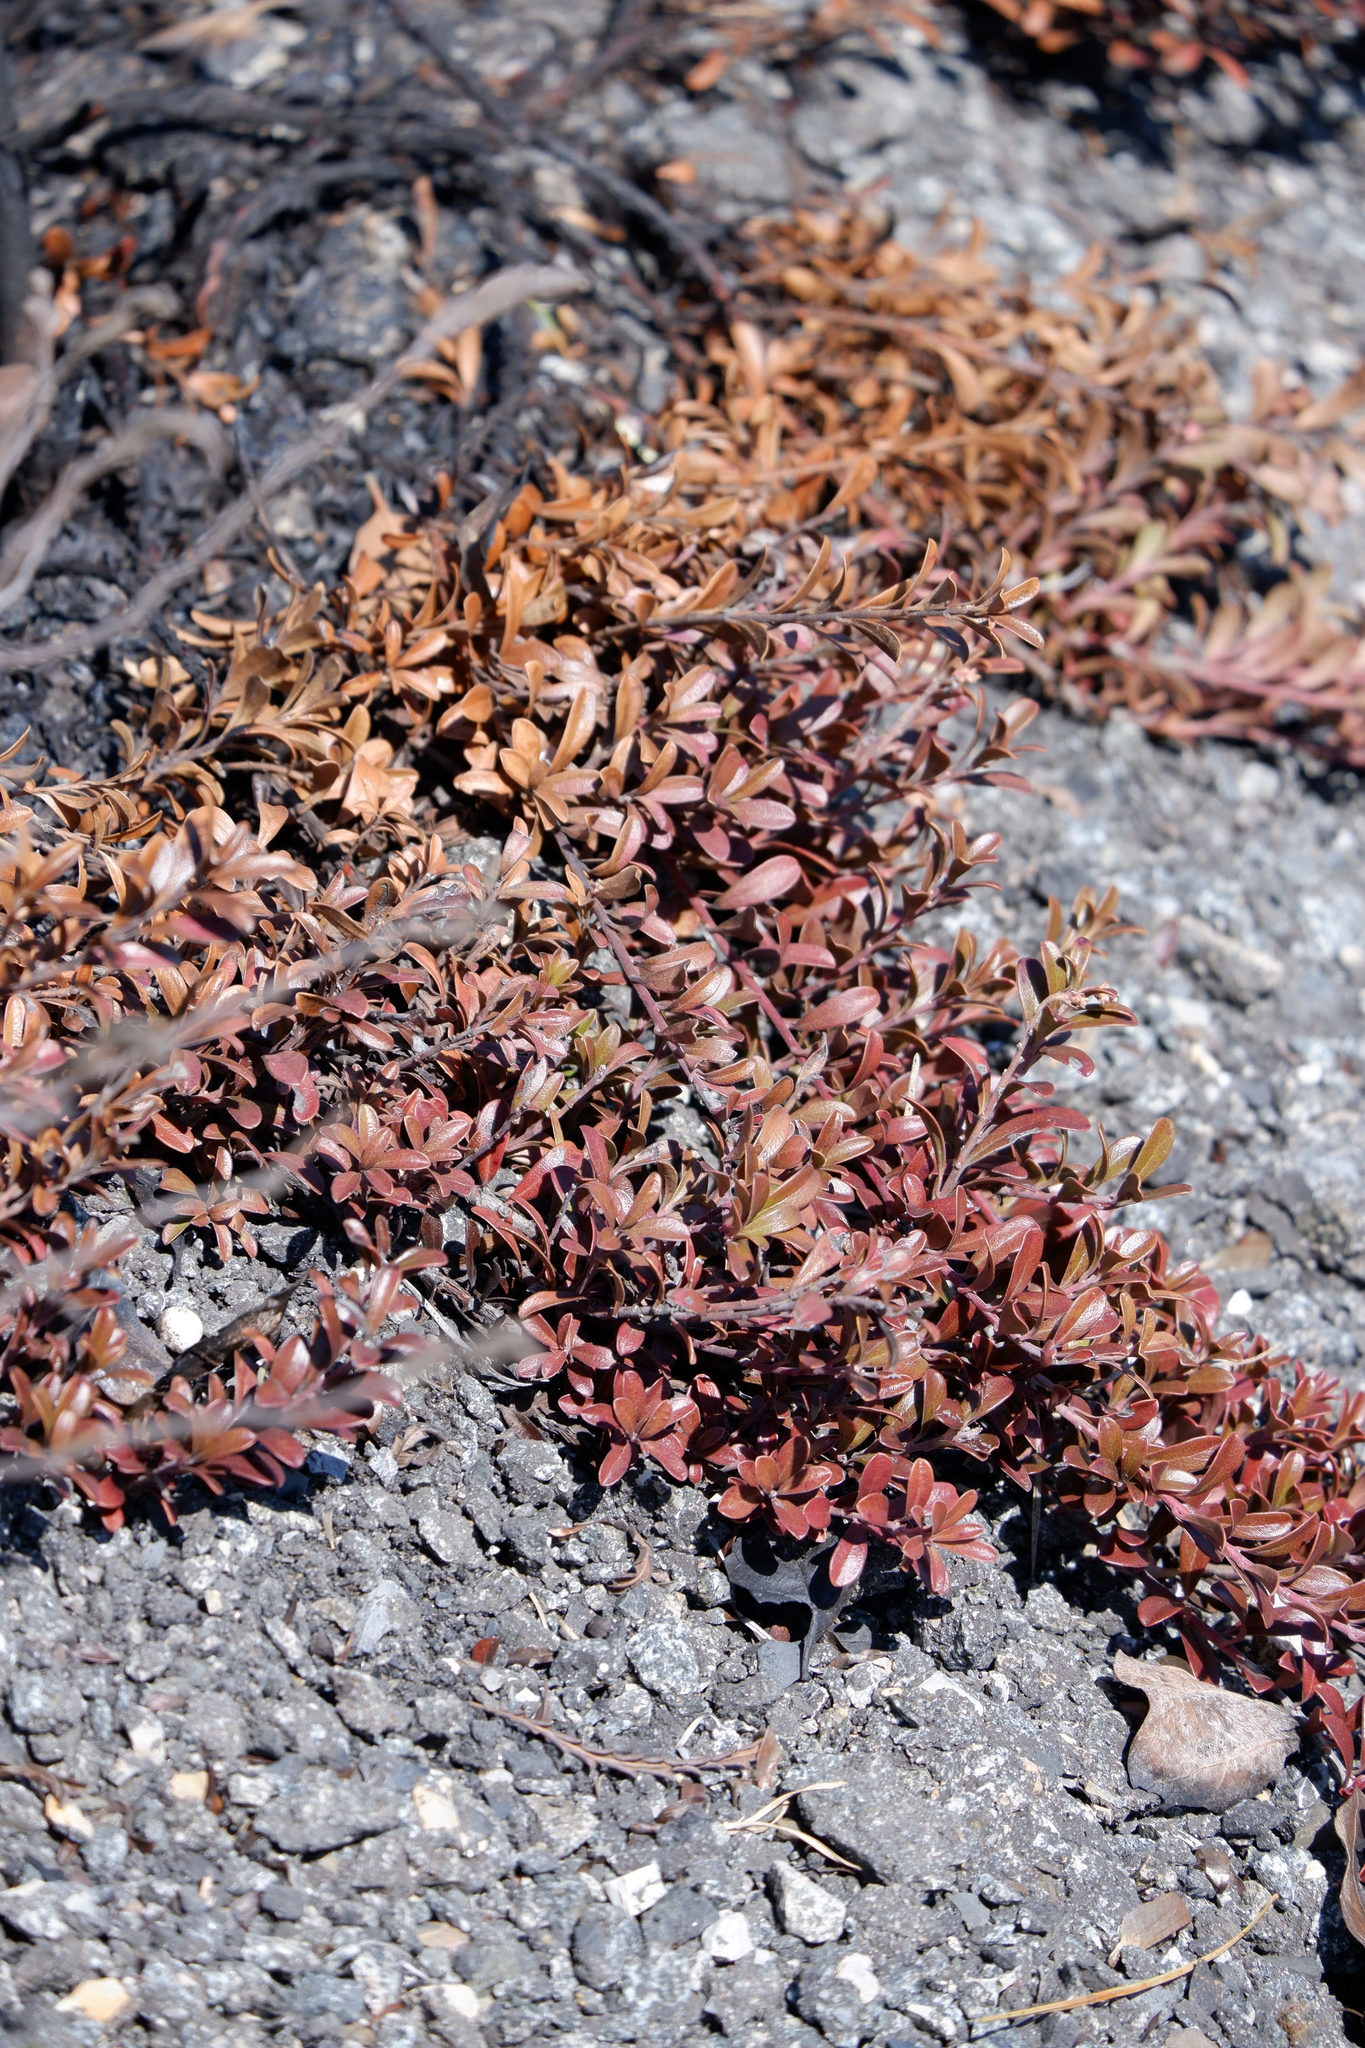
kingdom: Plantae
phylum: Tracheophyta
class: Magnoliopsida
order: Ericales
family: Ericaceae
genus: Arctostaphylos
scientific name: Arctostaphylos uva-ursi
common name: Bearberry
